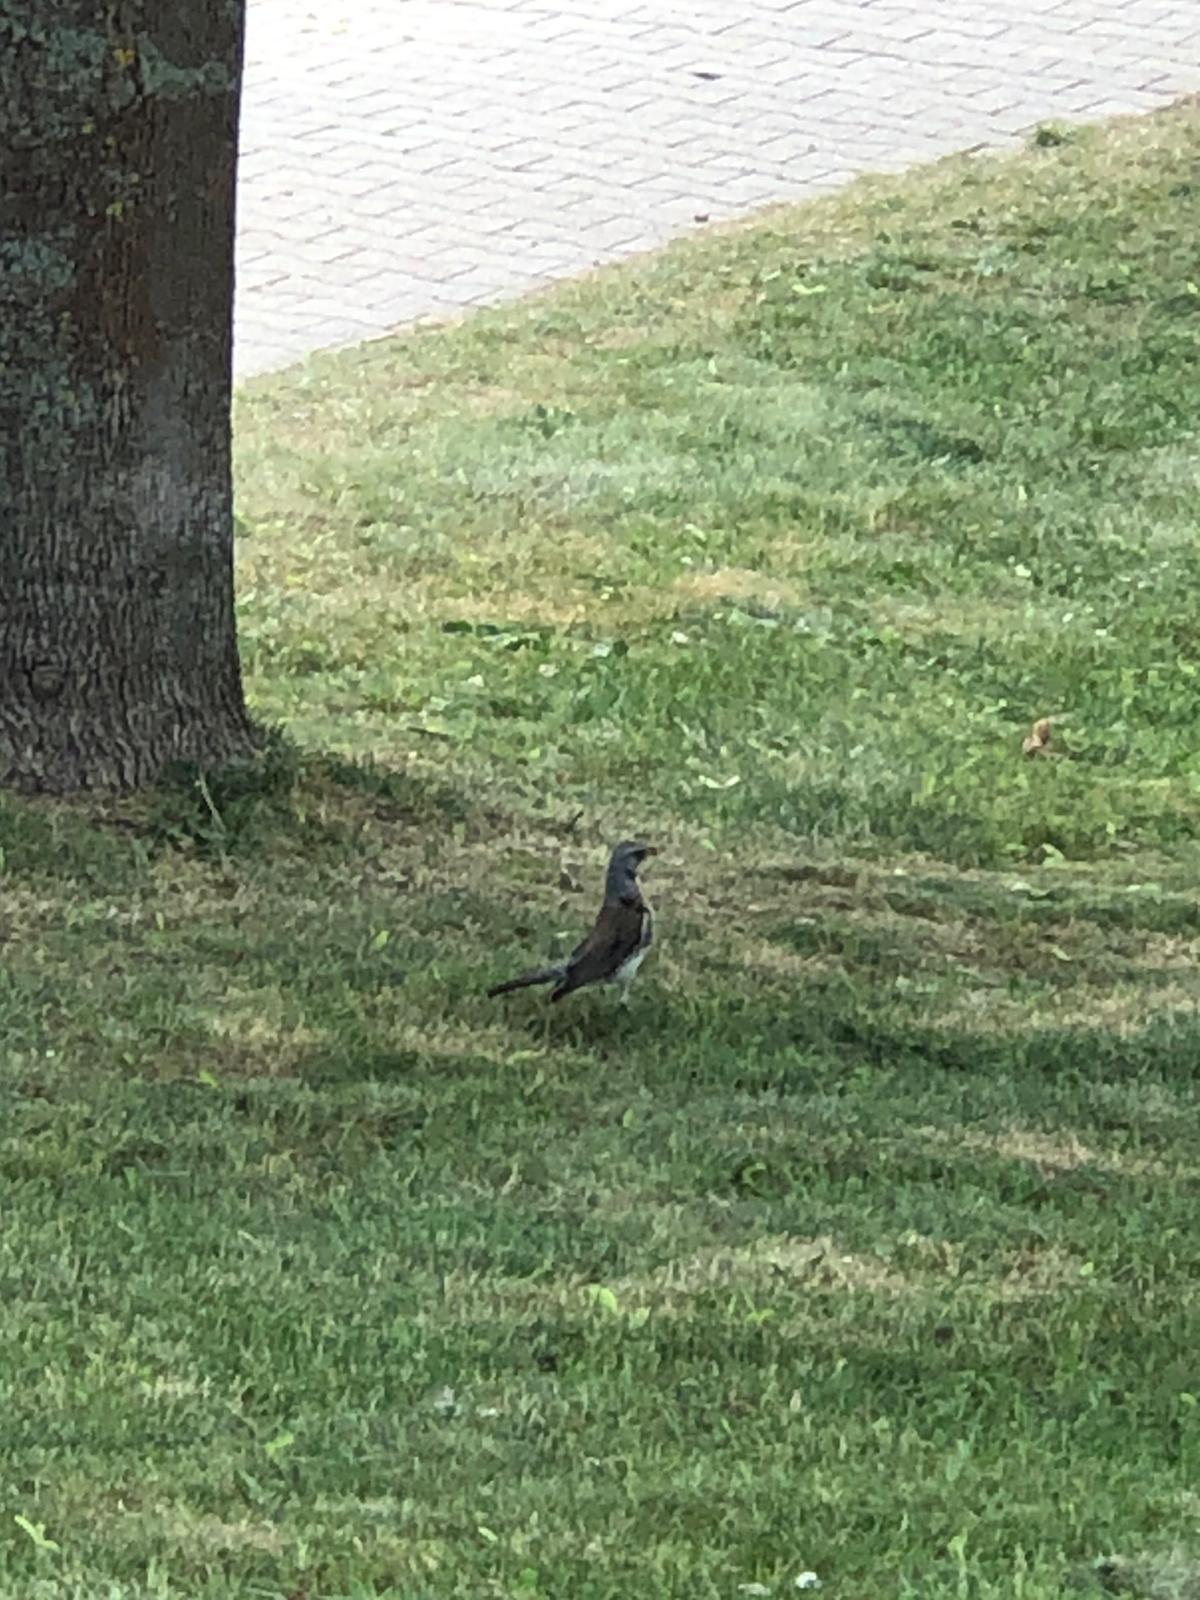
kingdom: Animalia
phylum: Chordata
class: Aves
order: Passeriformes
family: Turdidae
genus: Turdus
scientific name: Turdus pilaris
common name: Fieldfare
